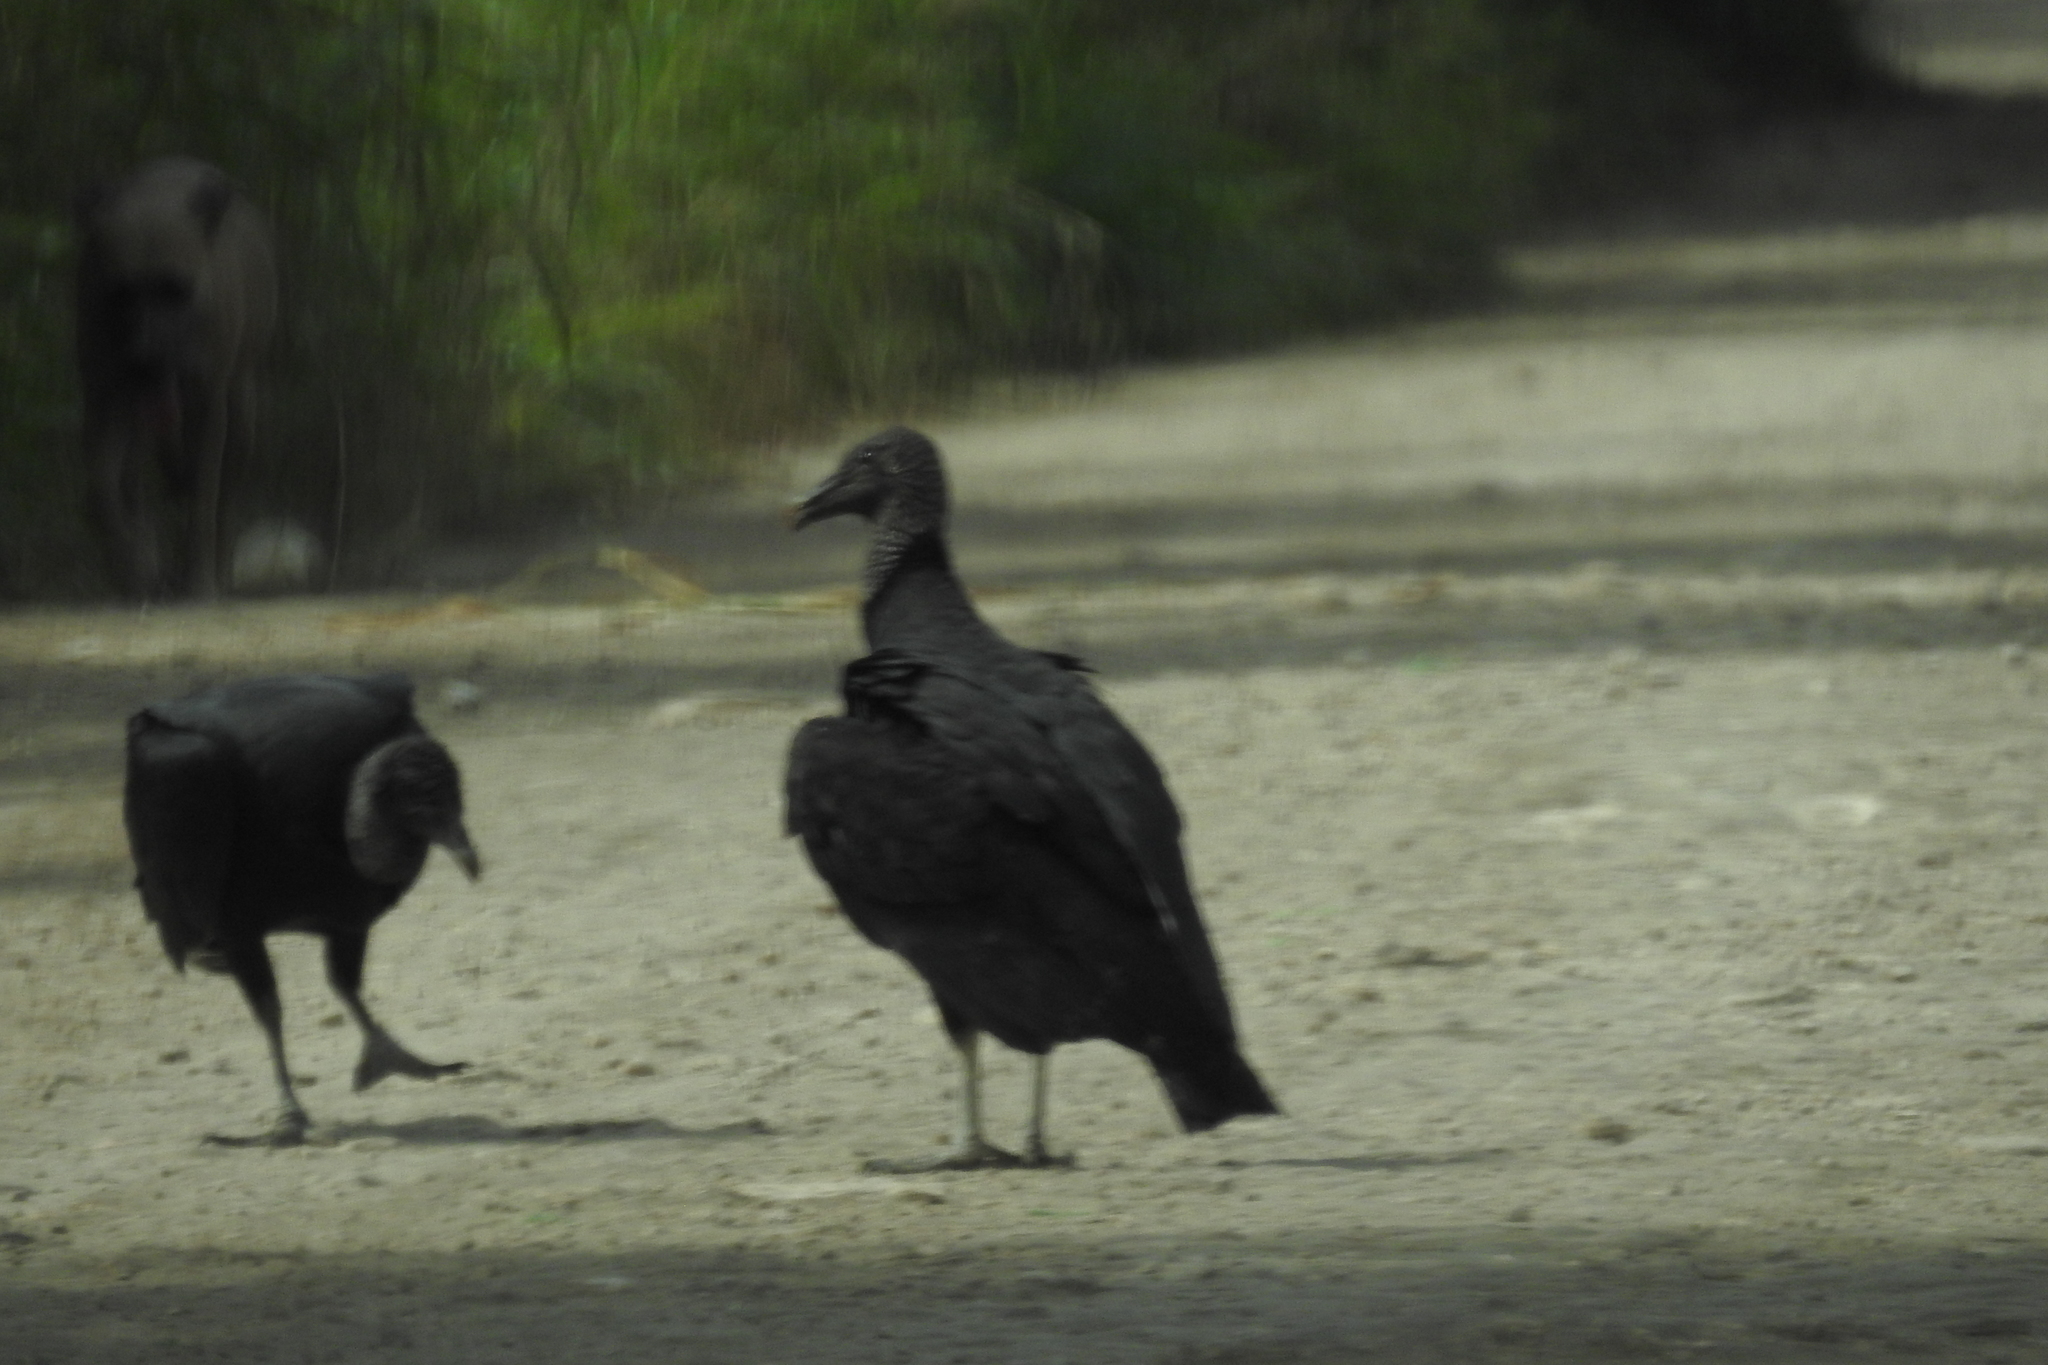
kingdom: Animalia
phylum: Chordata
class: Aves
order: Accipitriformes
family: Cathartidae
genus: Coragyps
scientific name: Coragyps atratus
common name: Black vulture
